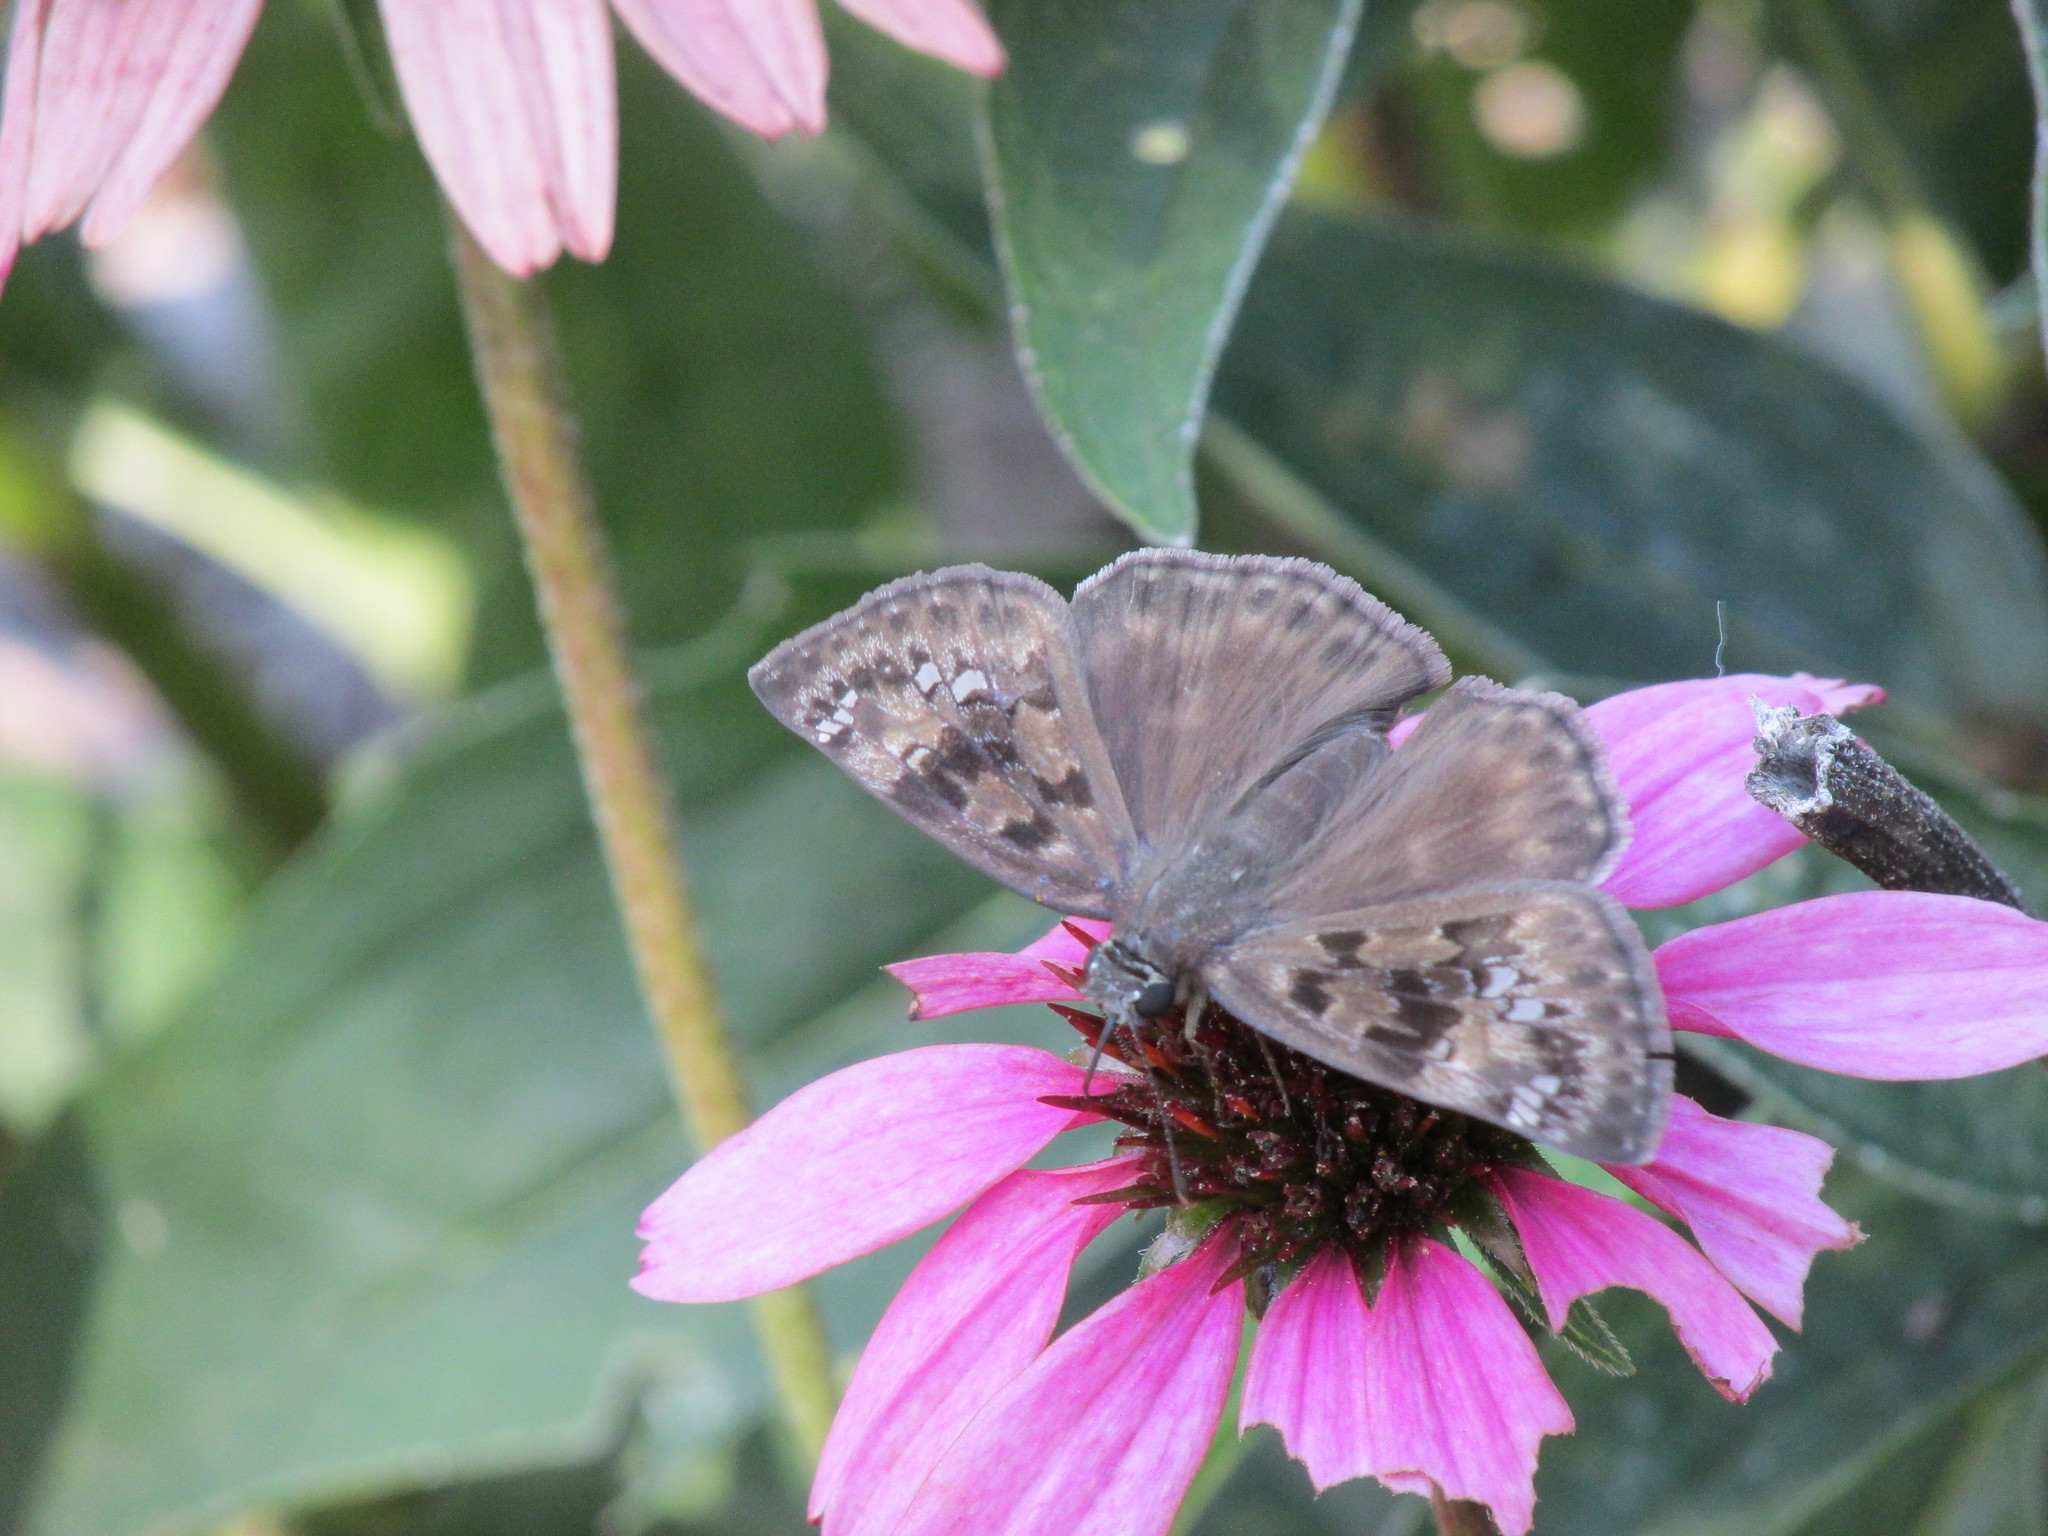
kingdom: Animalia
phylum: Arthropoda
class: Insecta
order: Lepidoptera
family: Hesperiidae
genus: Erynnis
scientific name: Erynnis horatius
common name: Horace's duskywing
